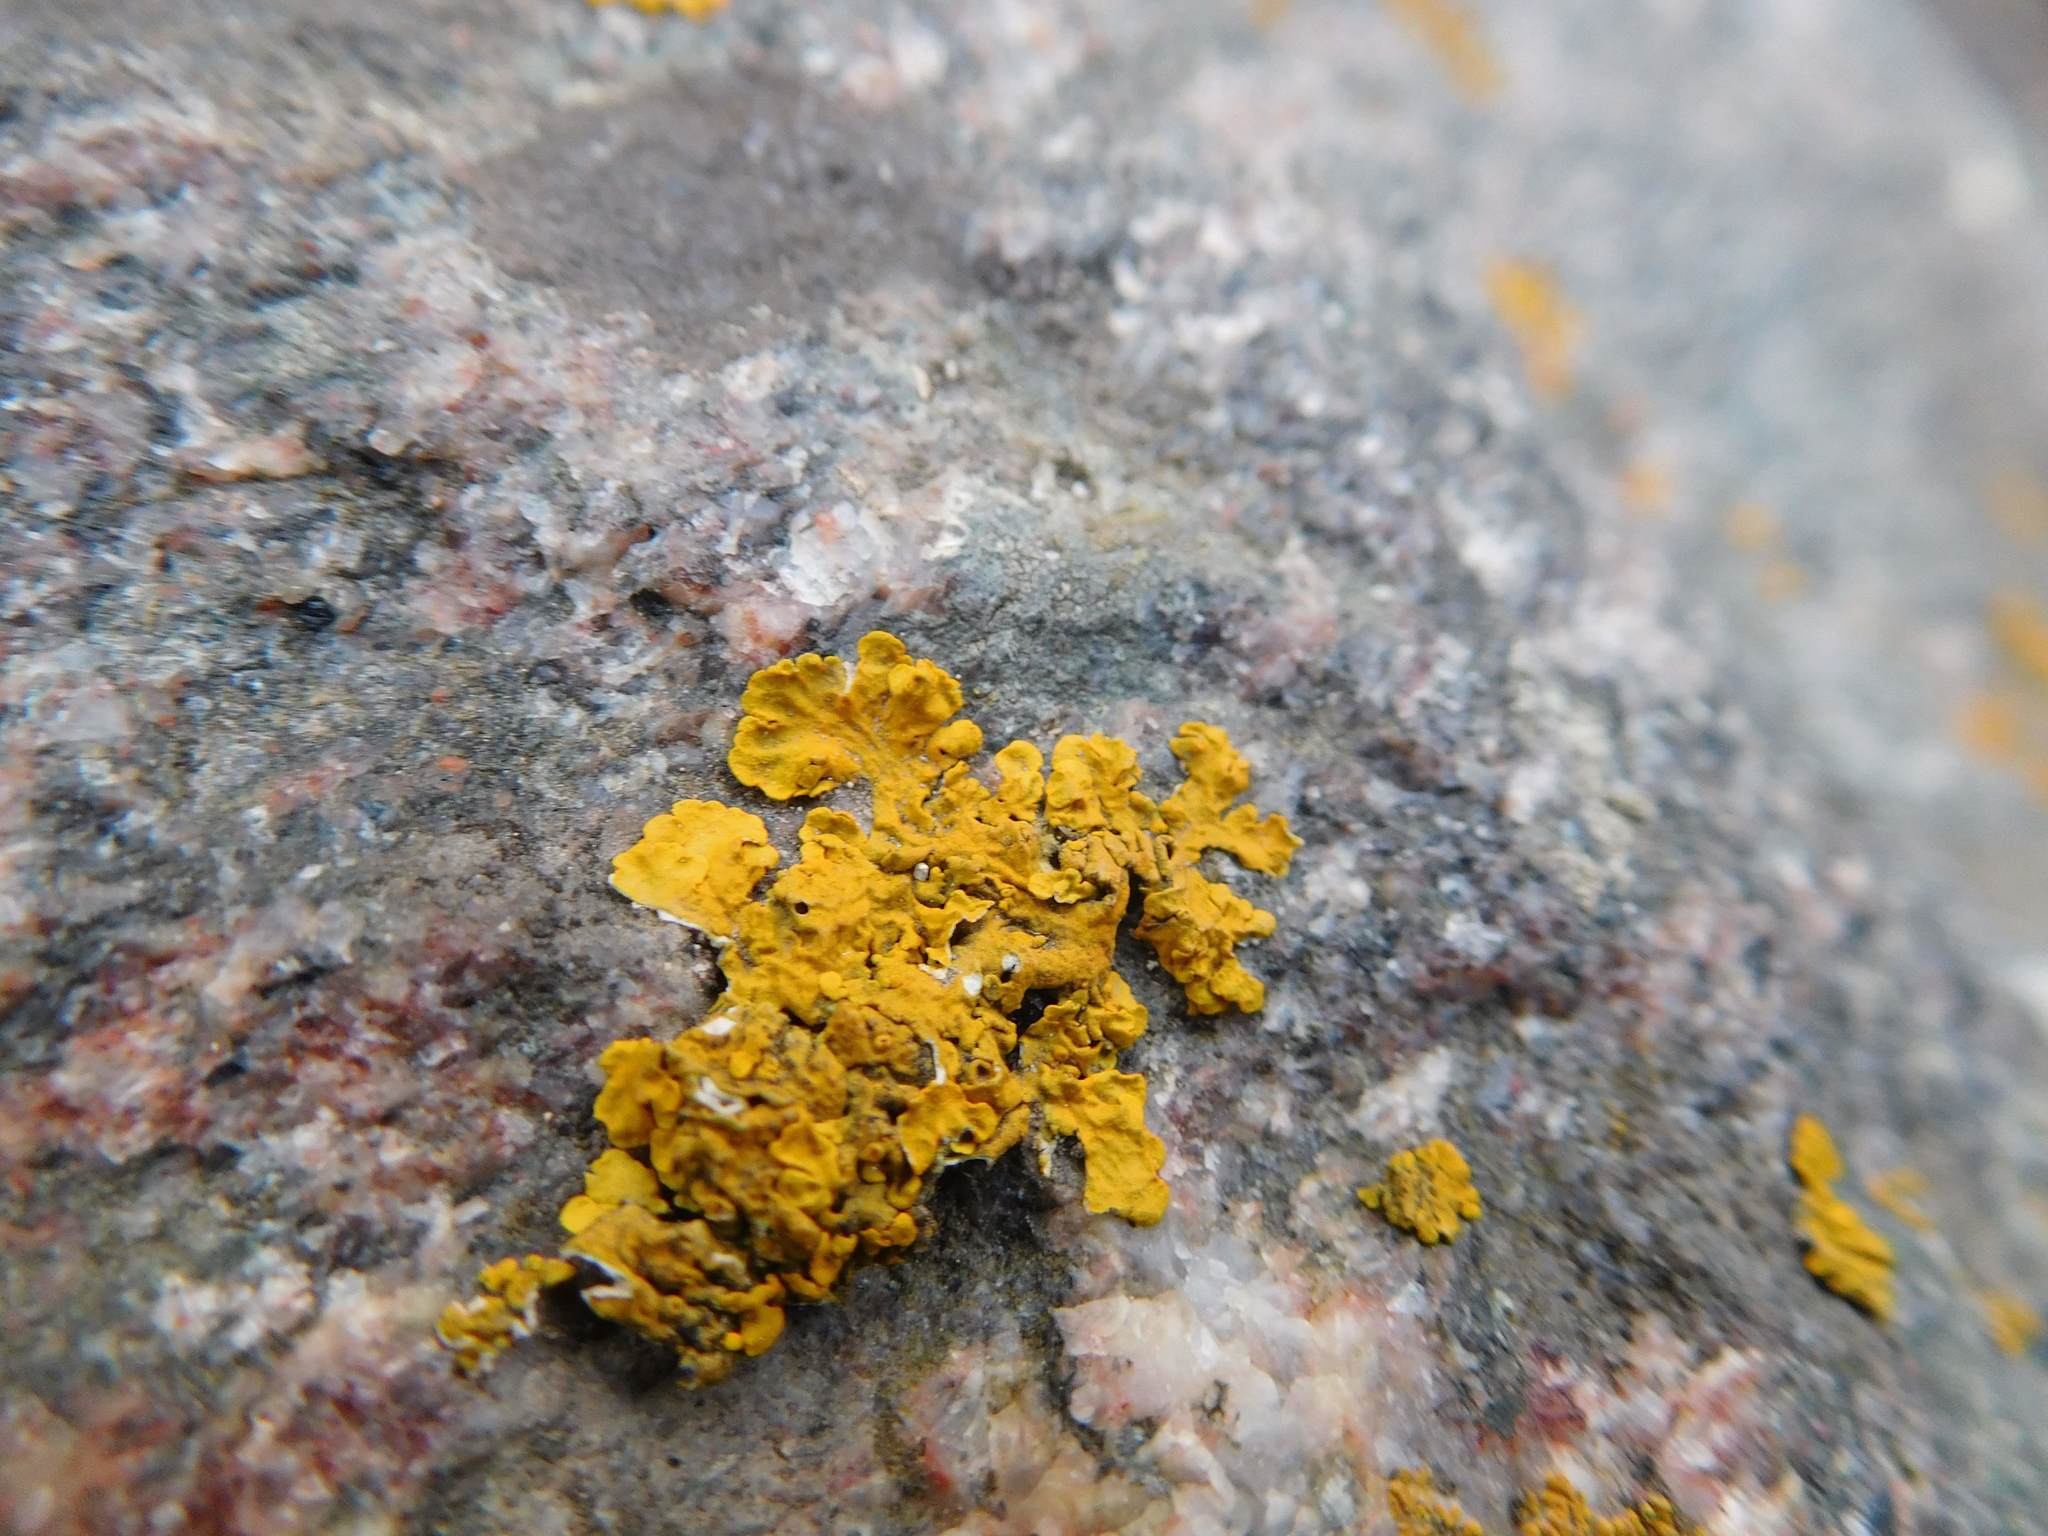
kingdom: Fungi
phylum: Ascomycota
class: Lecanoromycetes
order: Teloschistales
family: Teloschistaceae
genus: Xanthoria
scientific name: Xanthoria parietina
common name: Common orange lichen
